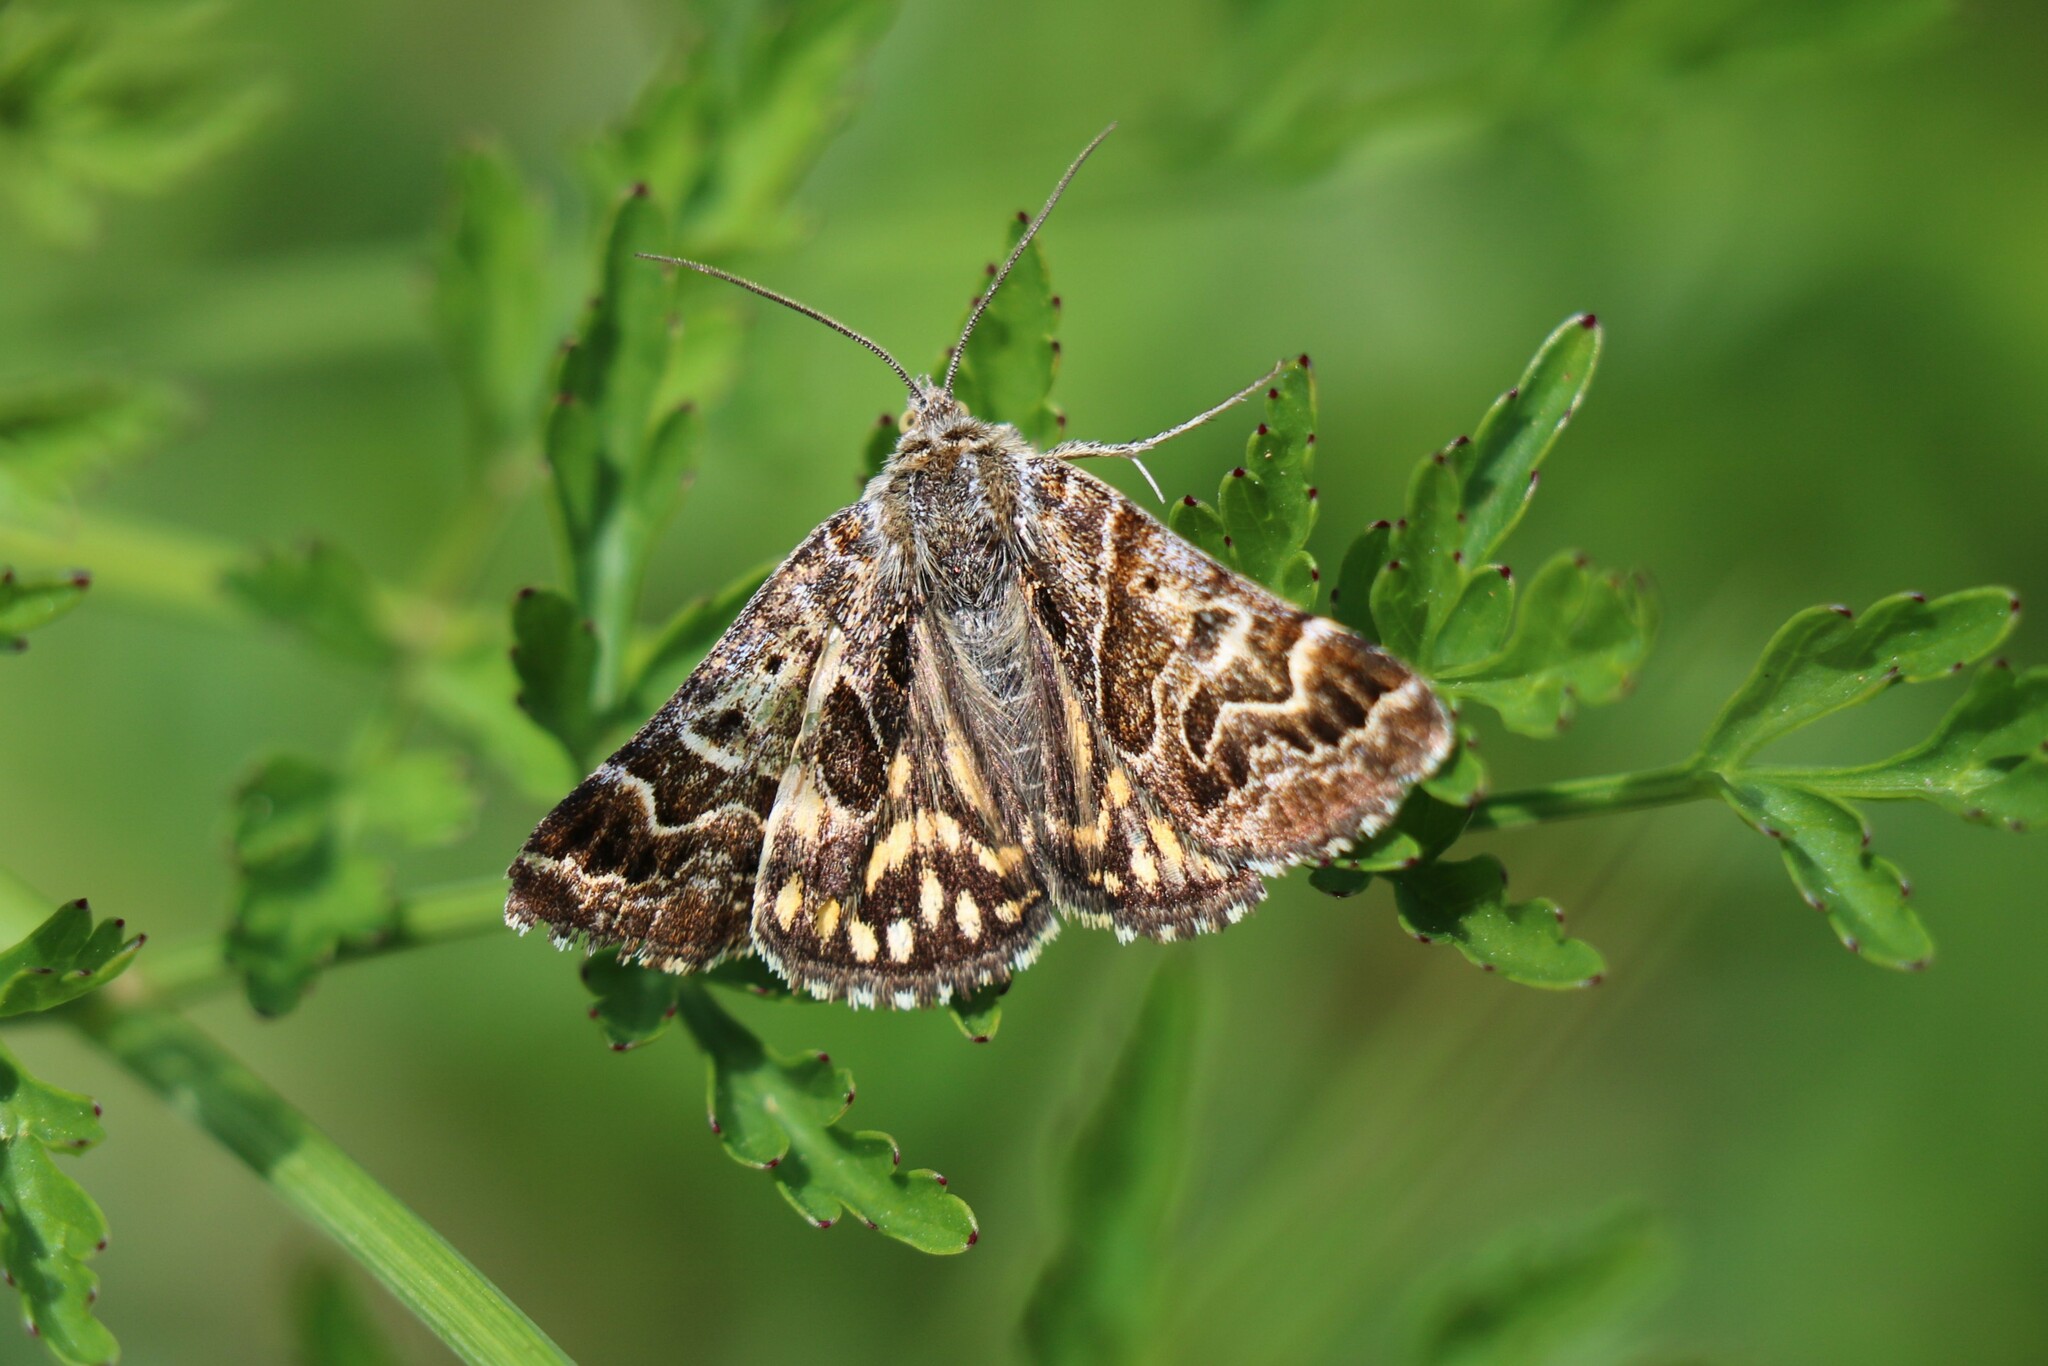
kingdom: Animalia
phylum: Arthropoda
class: Insecta
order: Lepidoptera
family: Erebidae
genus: Callistege
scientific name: Callistege mi
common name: Mother shipton
